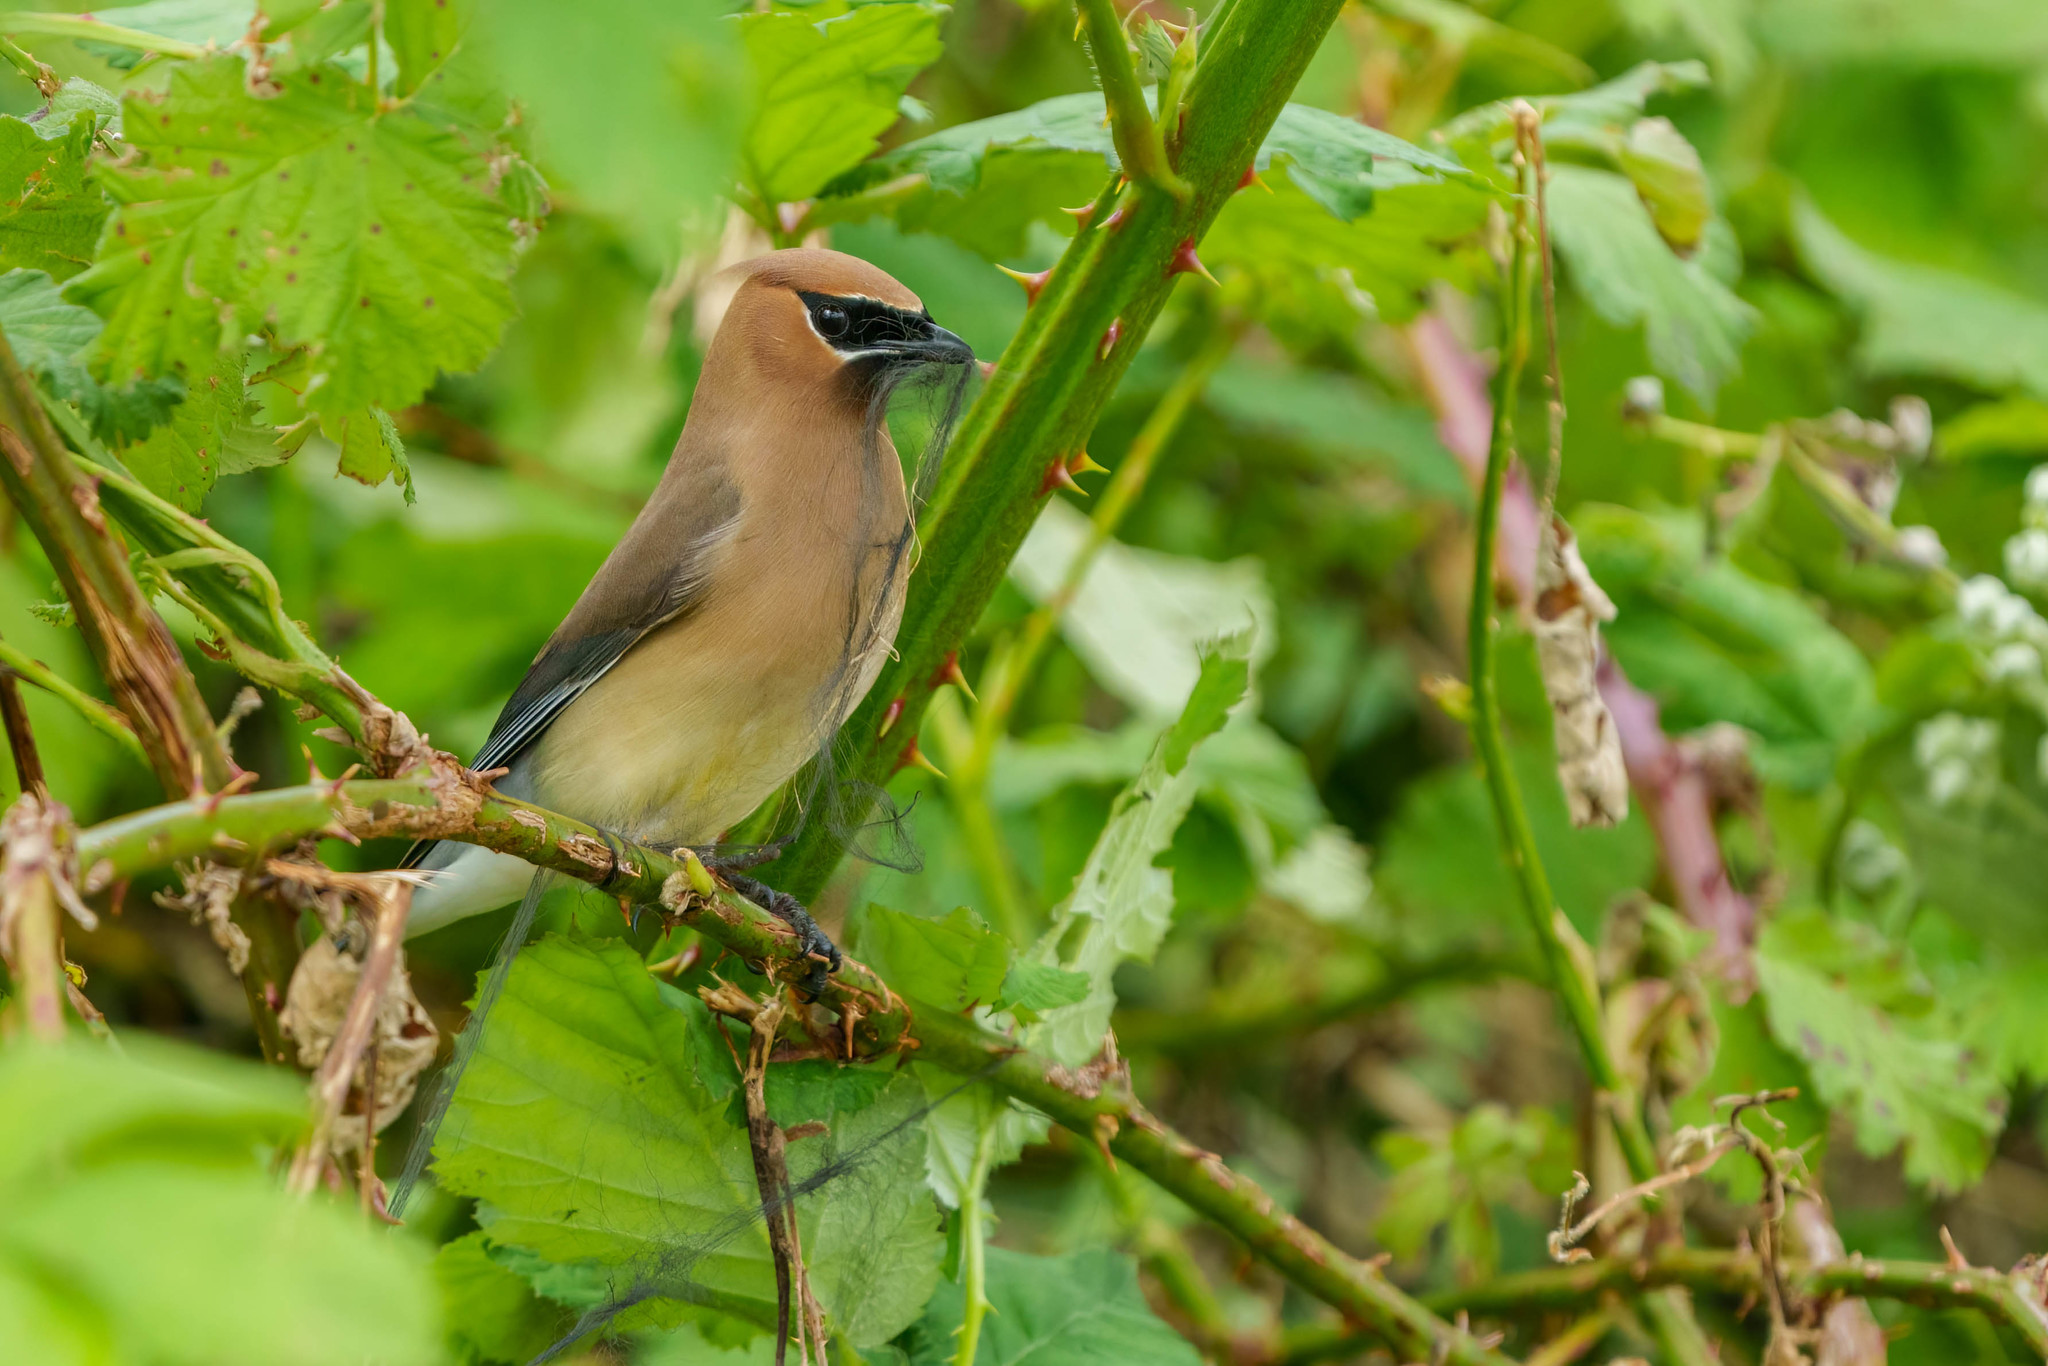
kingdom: Animalia
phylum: Chordata
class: Aves
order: Passeriformes
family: Bombycillidae
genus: Bombycilla
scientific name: Bombycilla cedrorum
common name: Cedar waxwing
